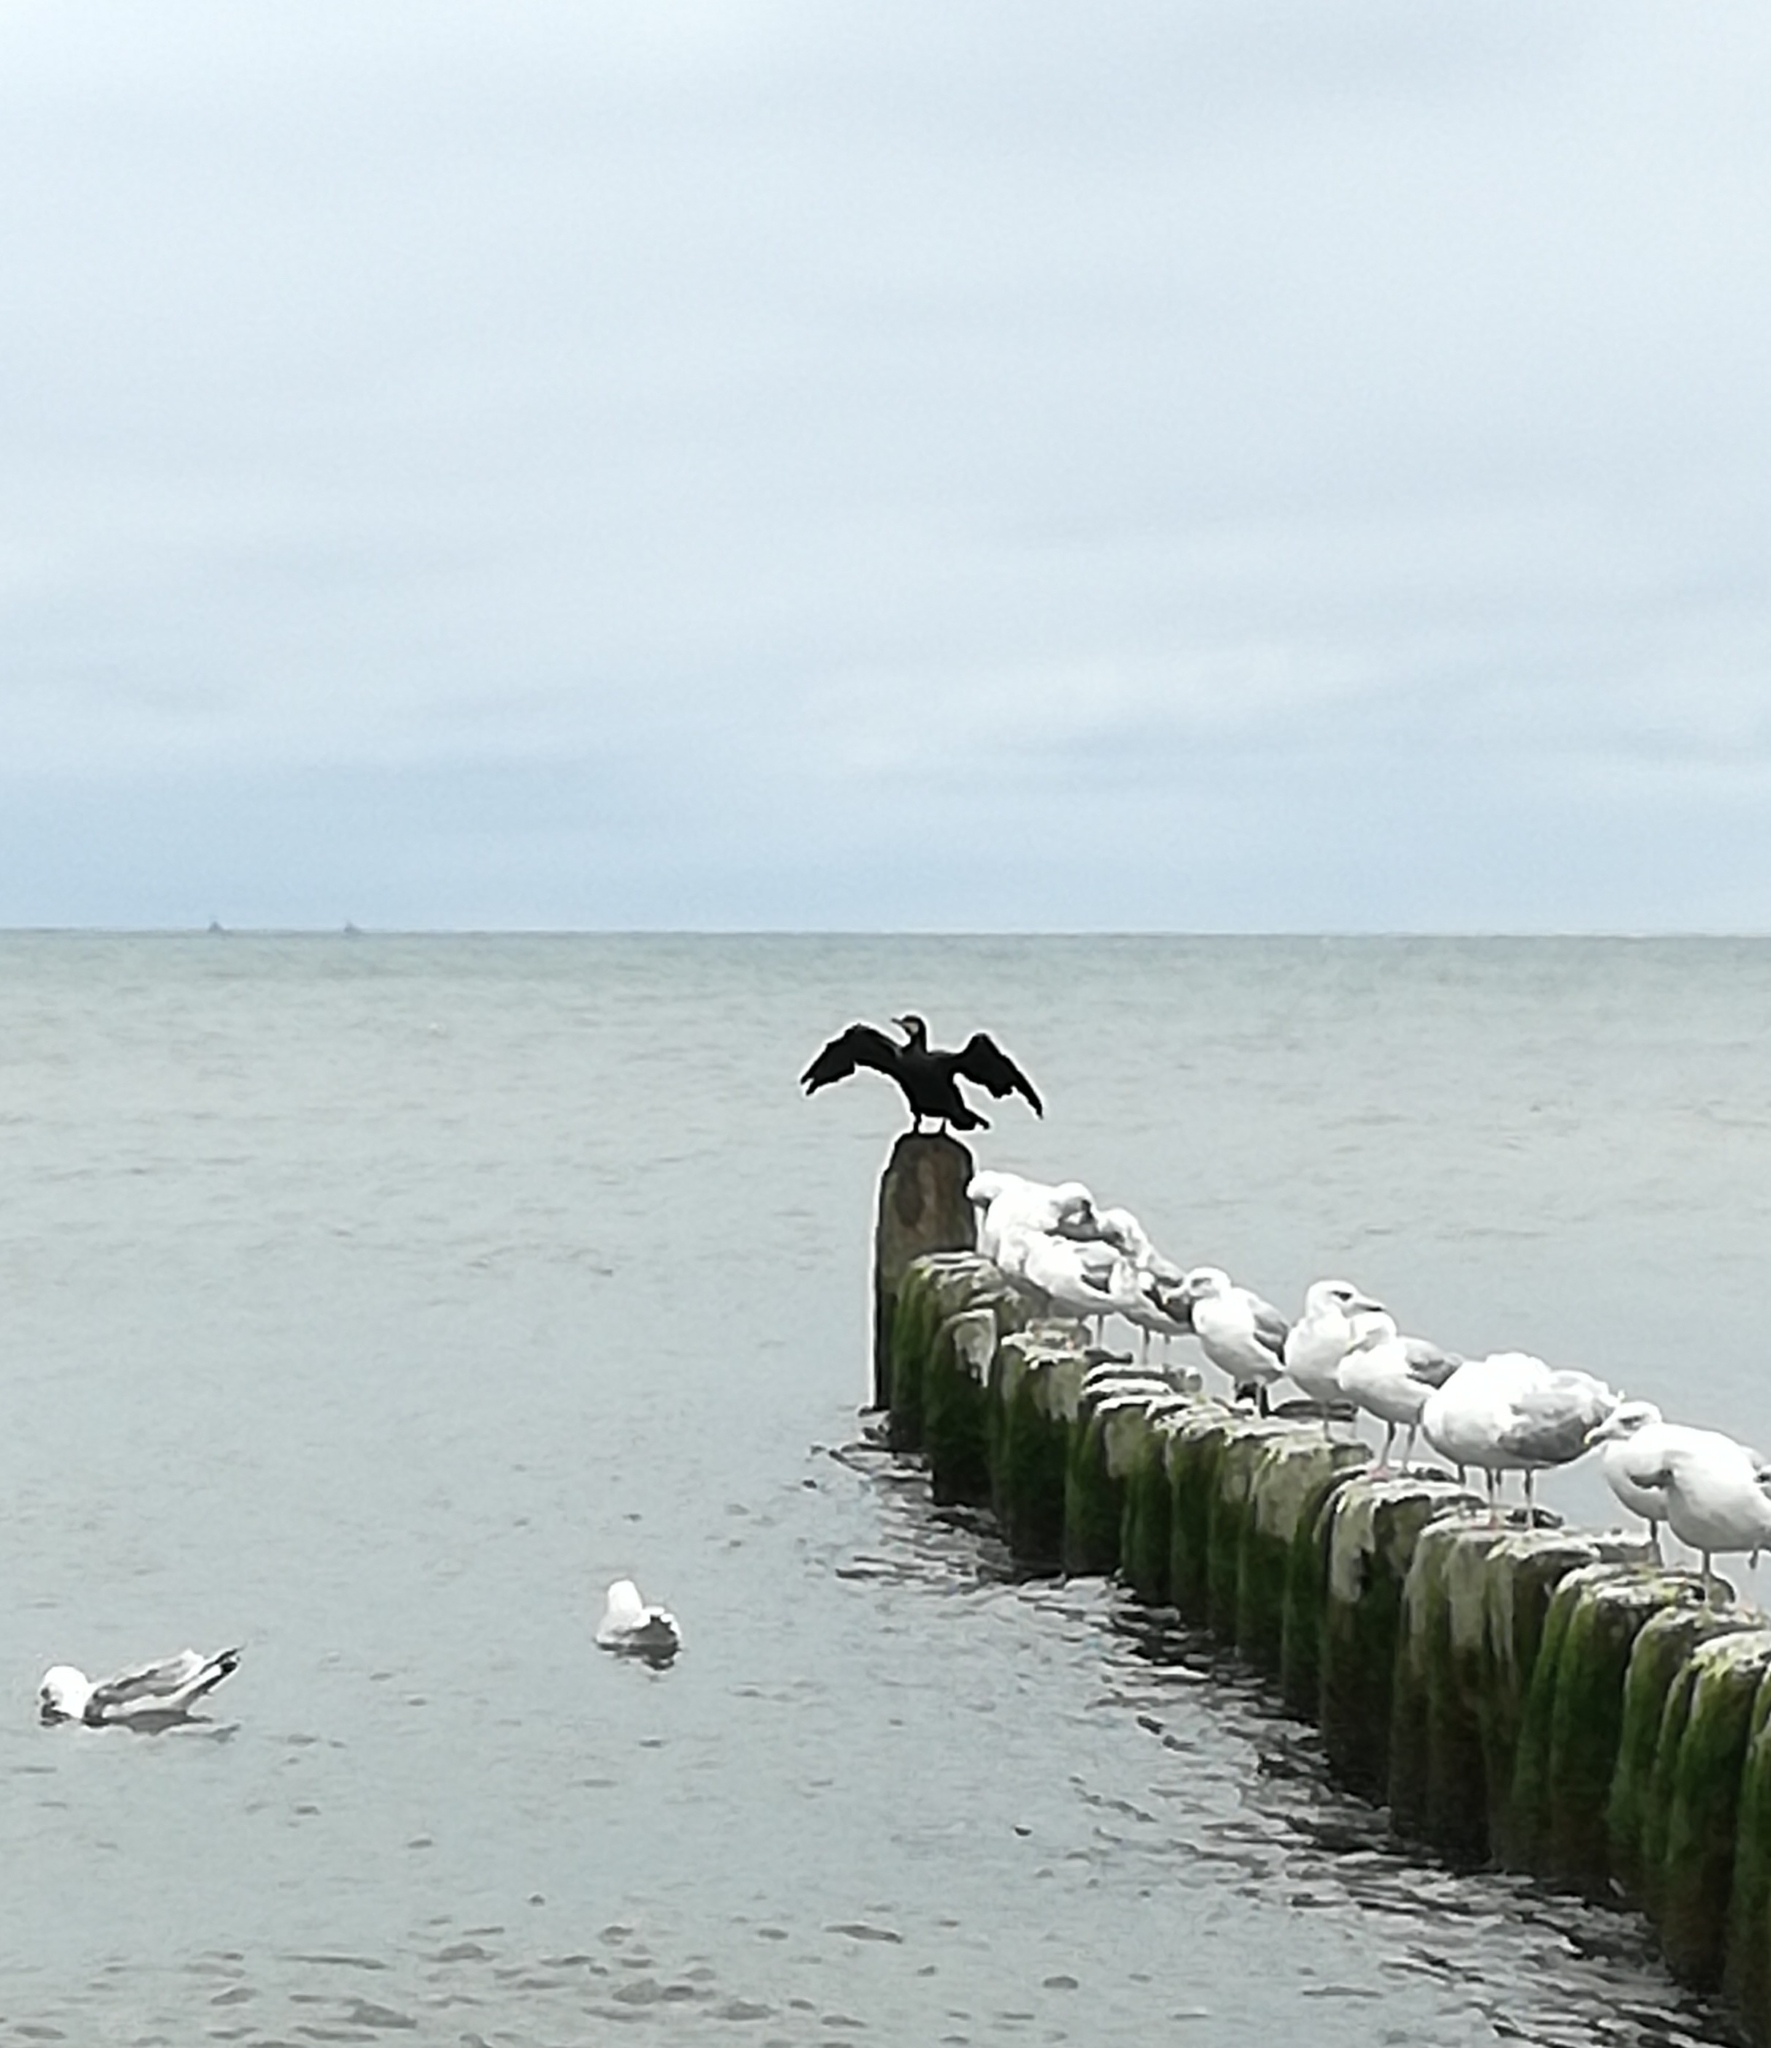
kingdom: Animalia
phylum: Chordata
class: Aves
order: Suliformes
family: Phalacrocoracidae
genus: Phalacrocorax
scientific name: Phalacrocorax carbo
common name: Great cormorant
